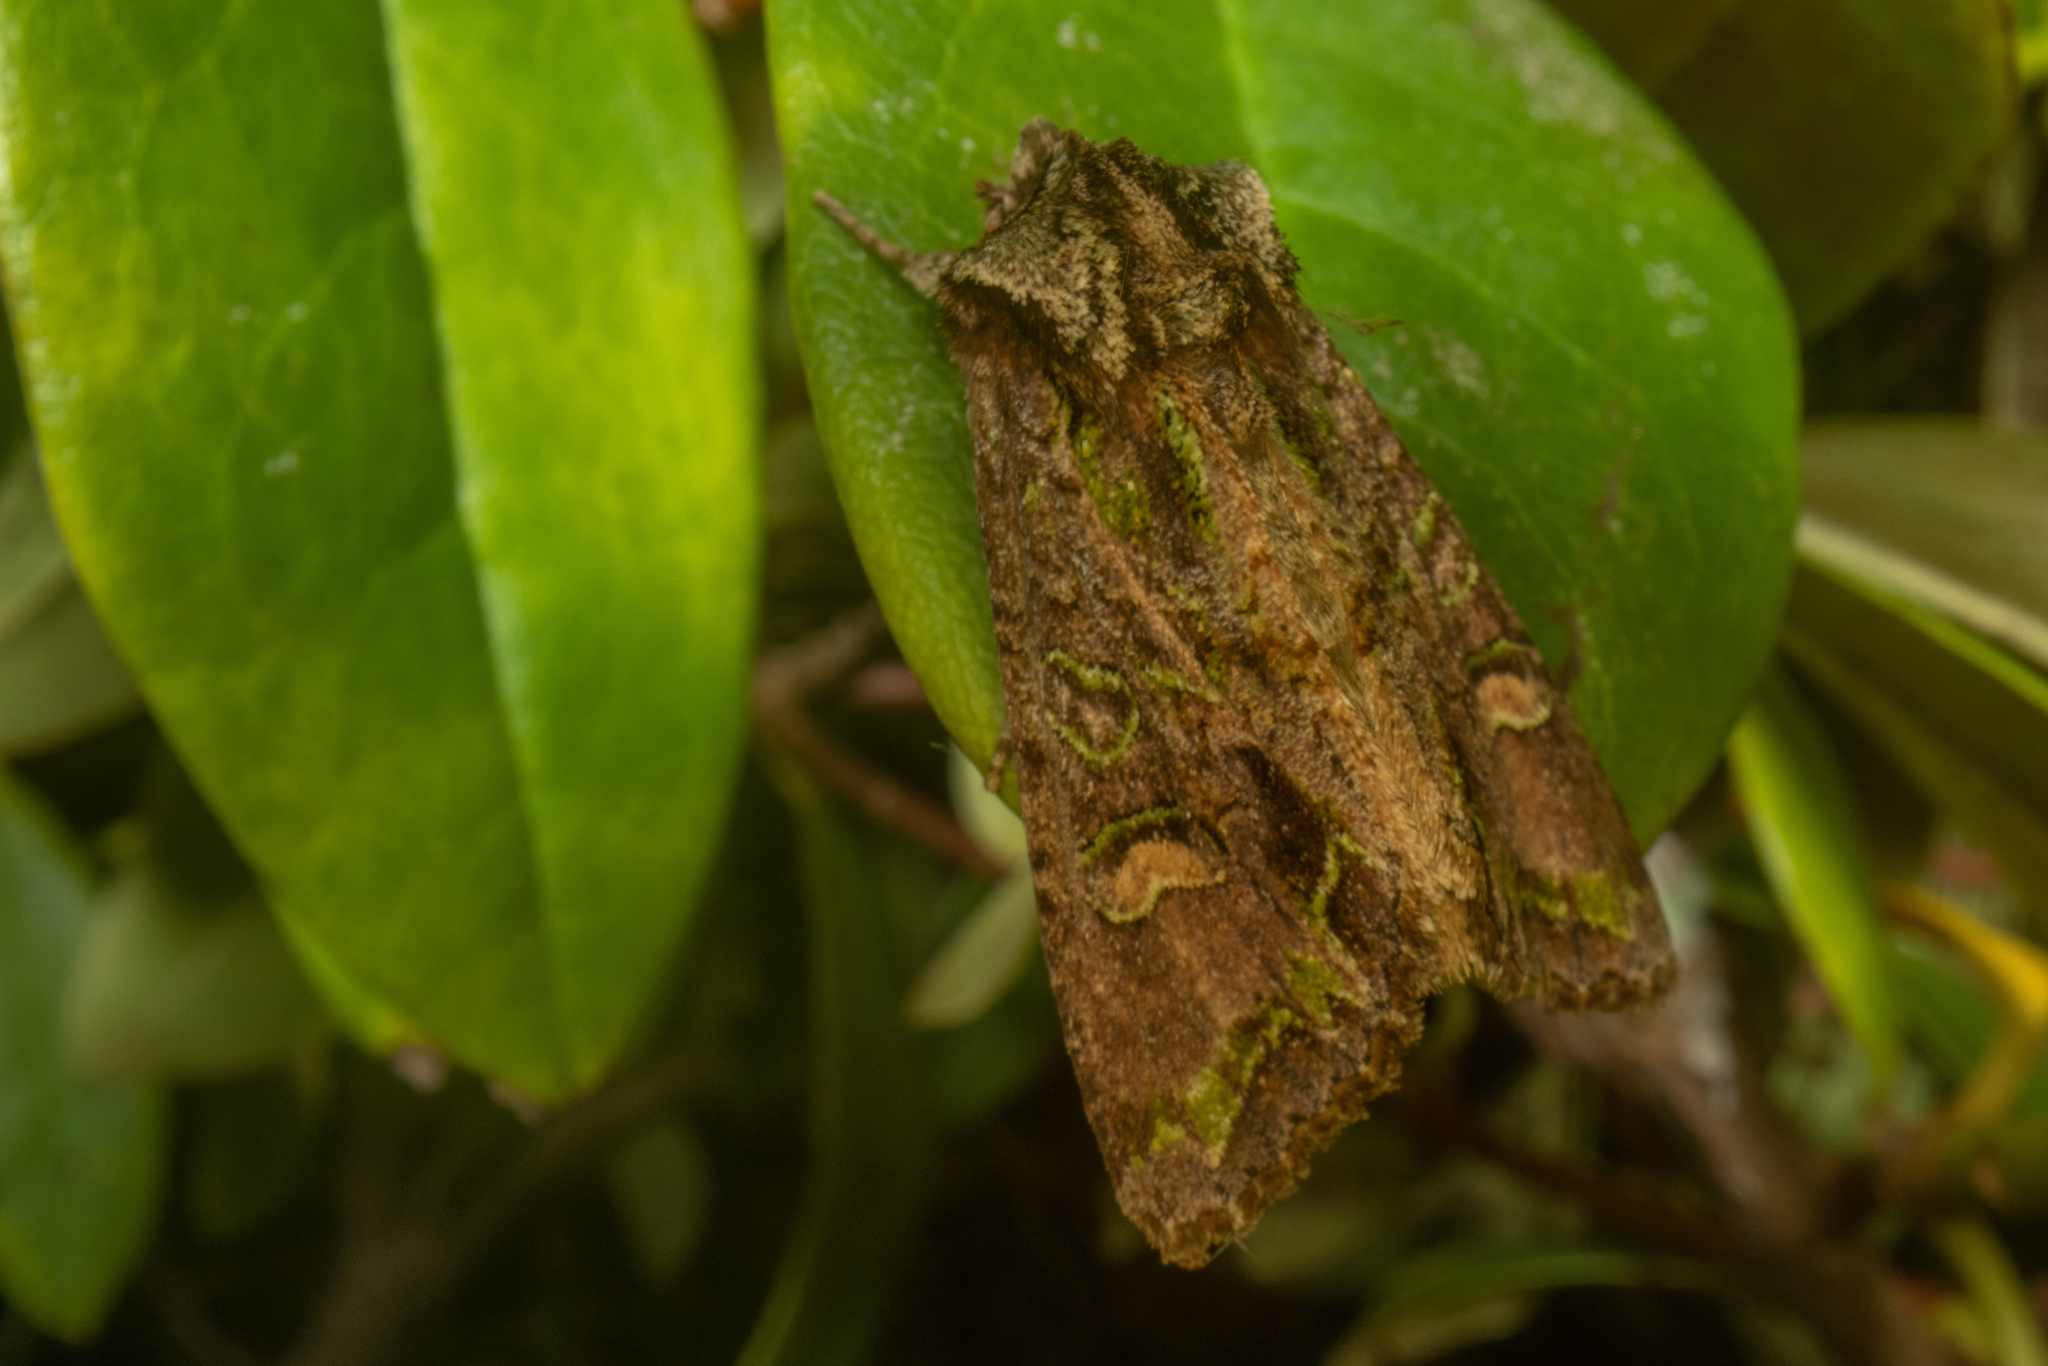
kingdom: Animalia
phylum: Arthropoda
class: Insecta
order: Lepidoptera
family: Noctuidae
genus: Ichneutica
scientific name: Ichneutica insignis
